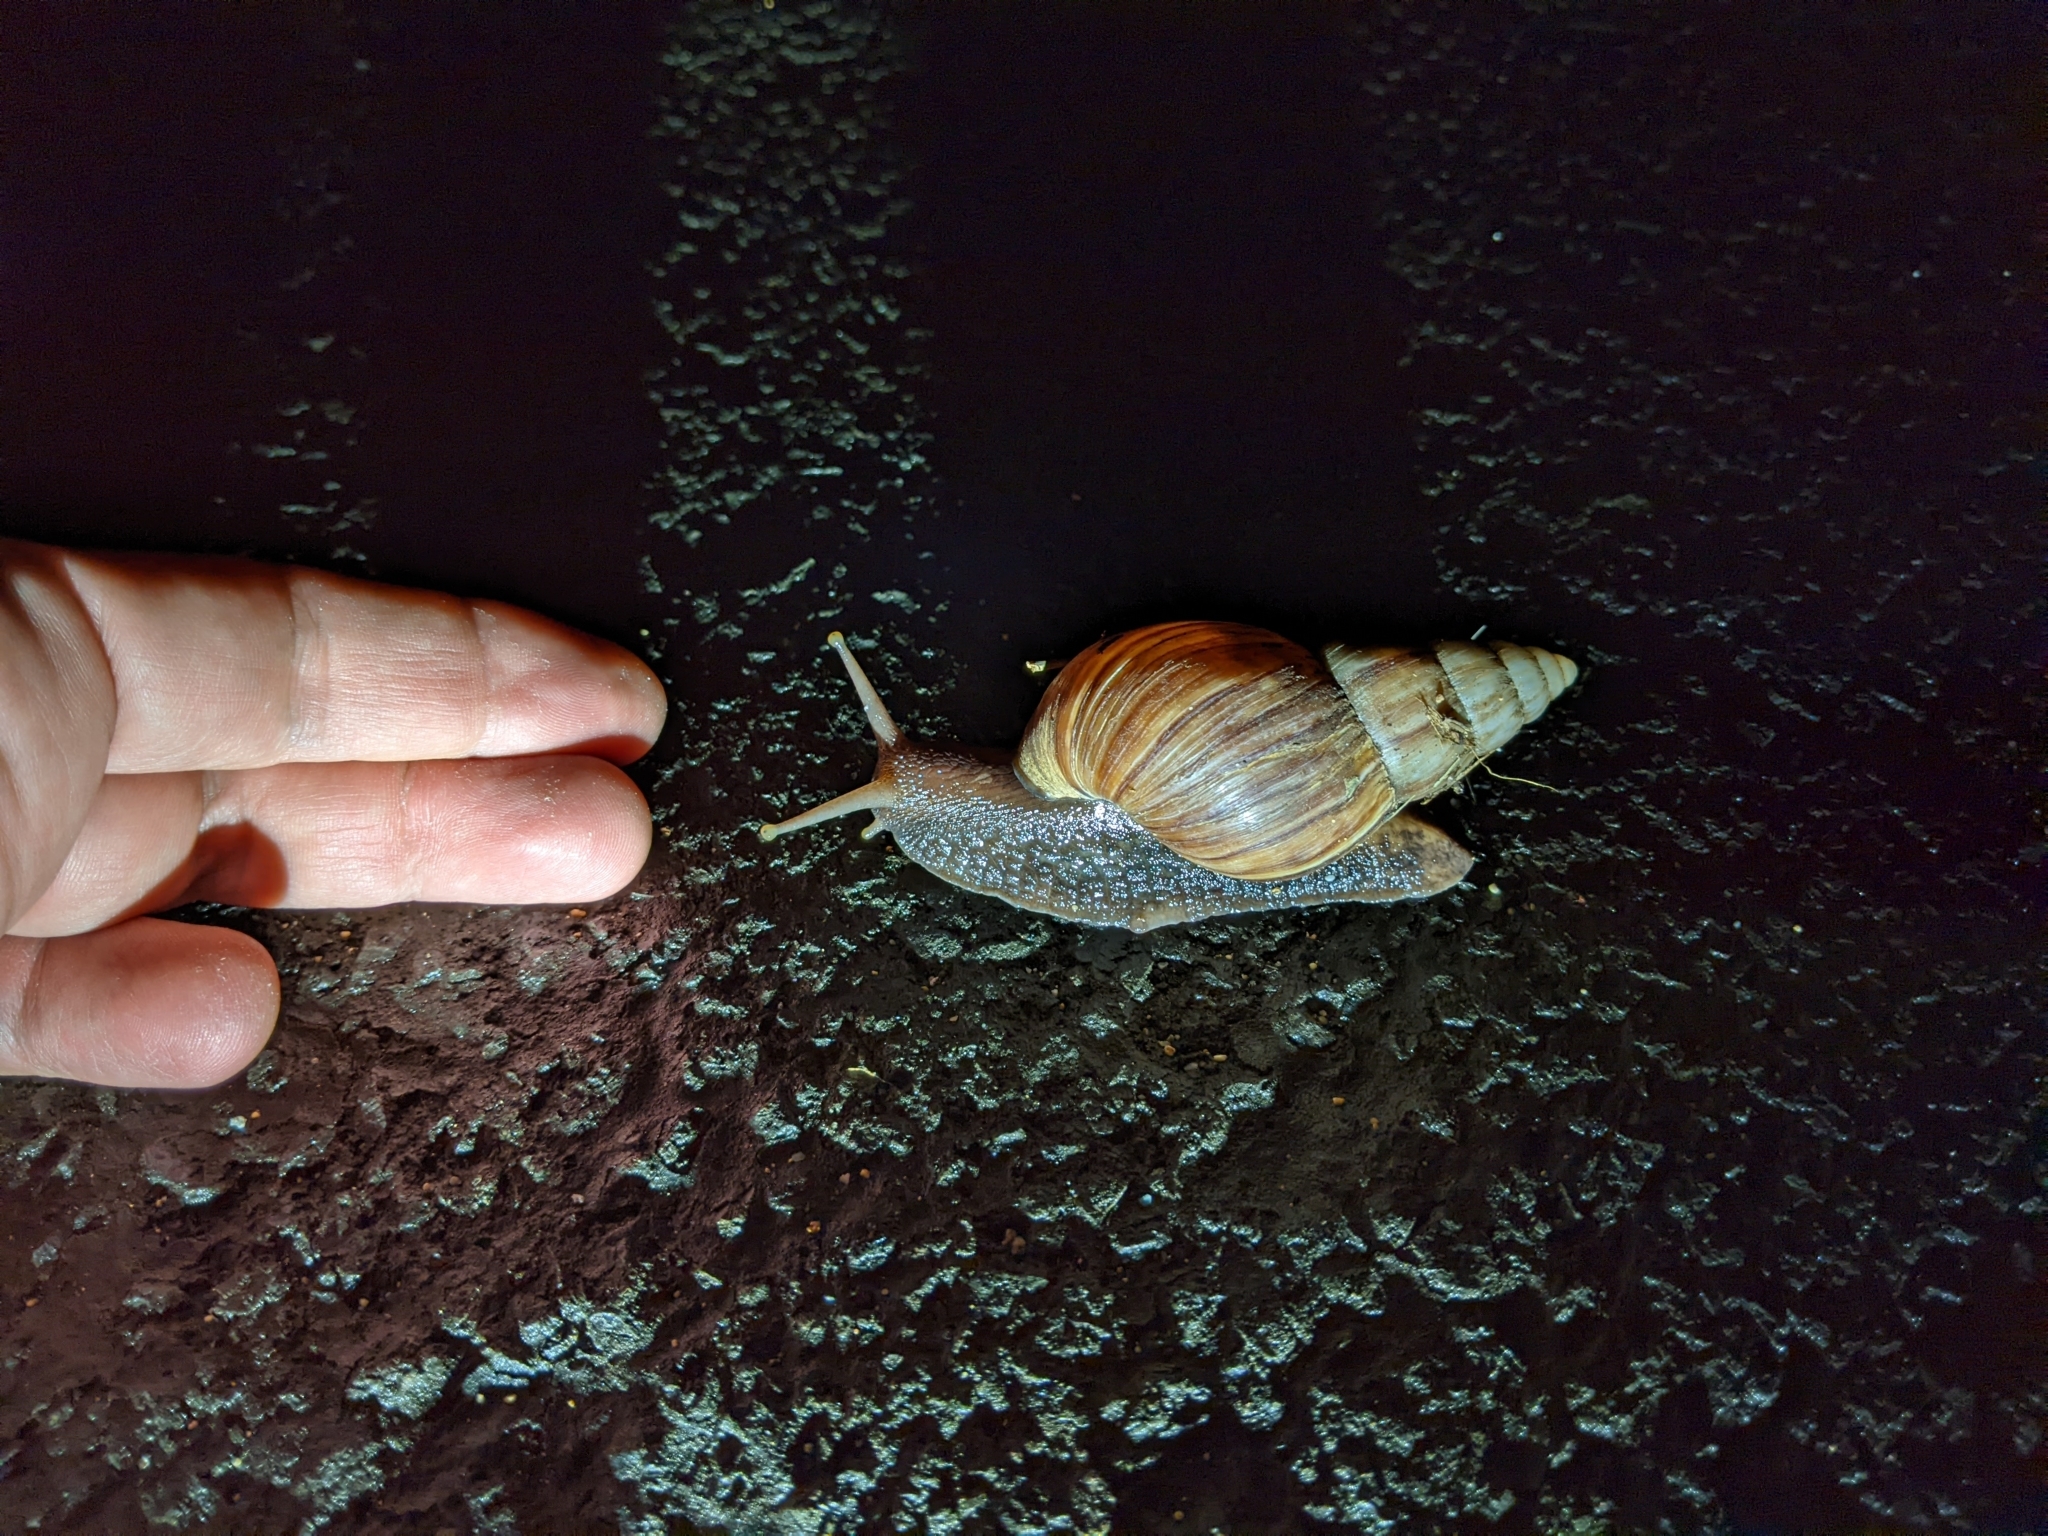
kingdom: Animalia
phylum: Mollusca
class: Gastropoda
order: Stylommatophora
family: Achatinidae
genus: Lissachatina
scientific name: Lissachatina fulica
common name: Giant african snail
